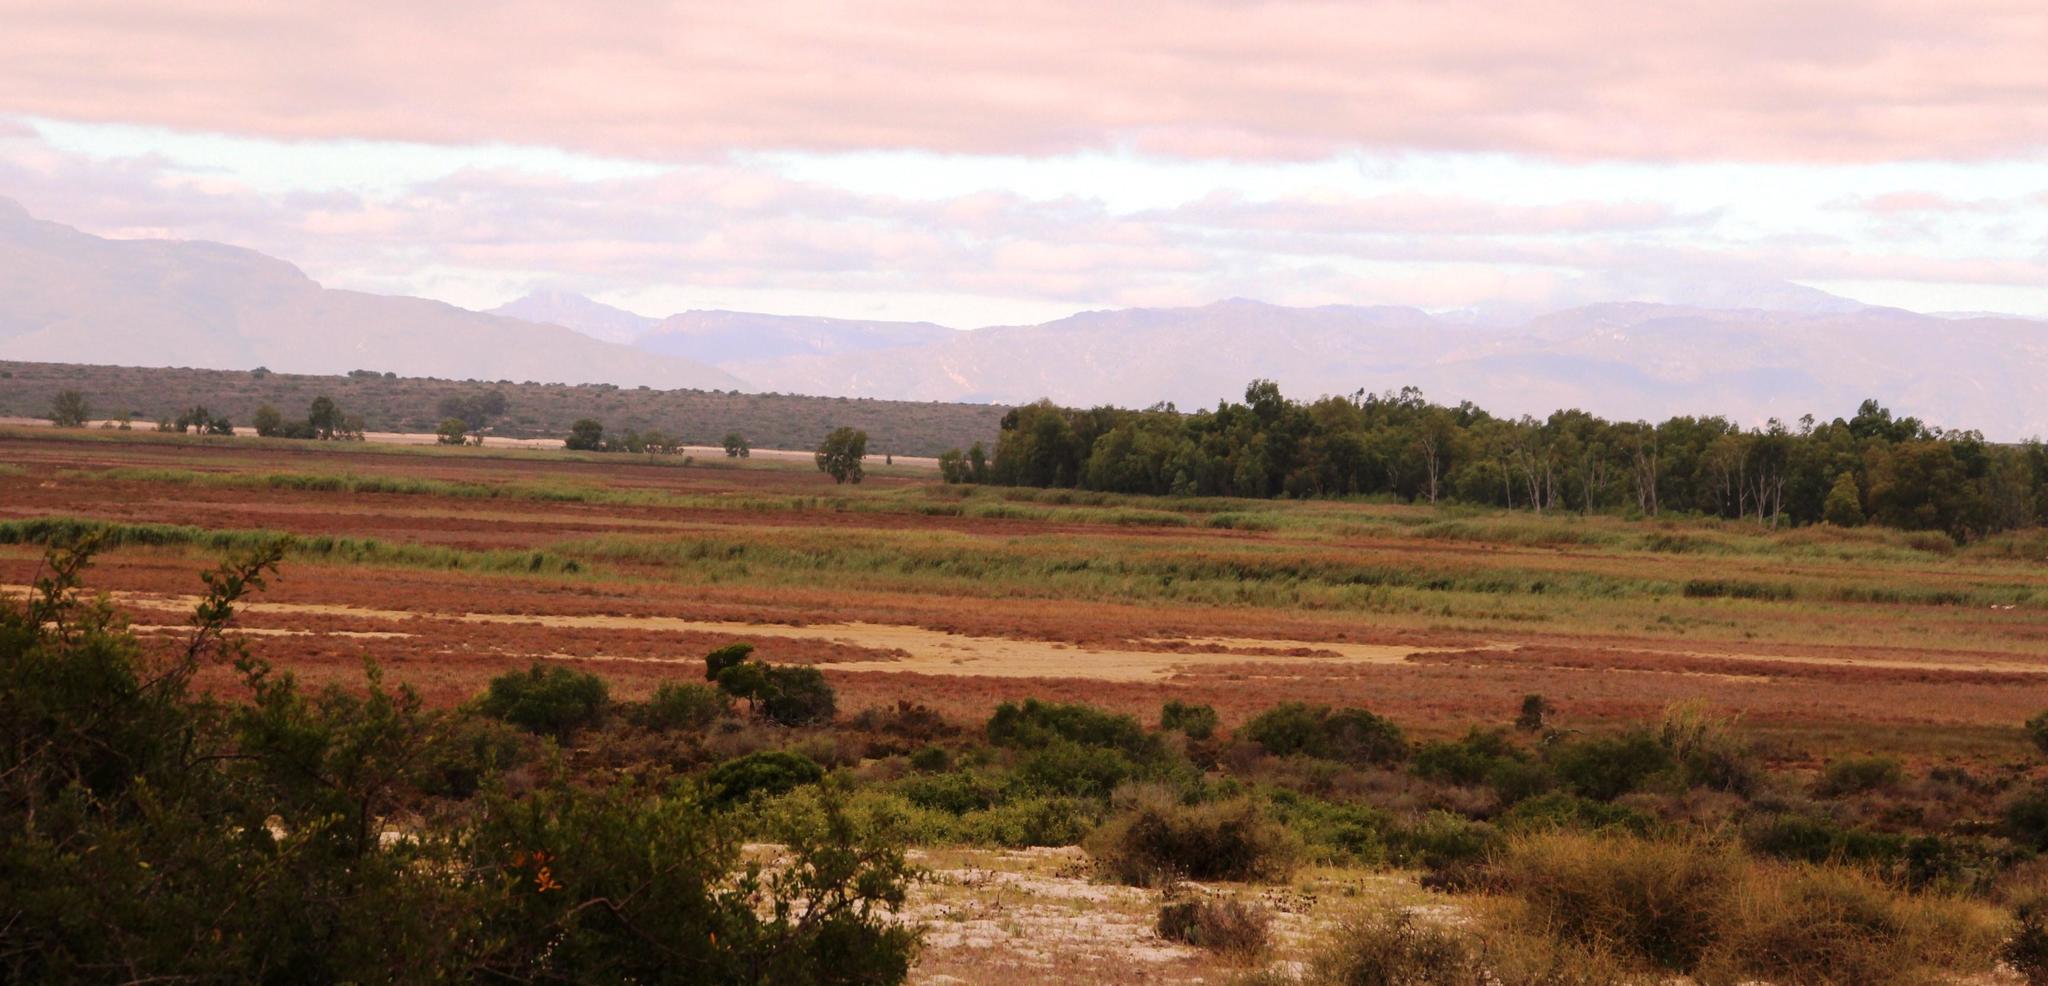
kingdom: Plantae
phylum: Tracheophyta
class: Magnoliopsida
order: Myrtales
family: Myrtaceae
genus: Eucalyptus
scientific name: Eucalyptus camaldulensis
